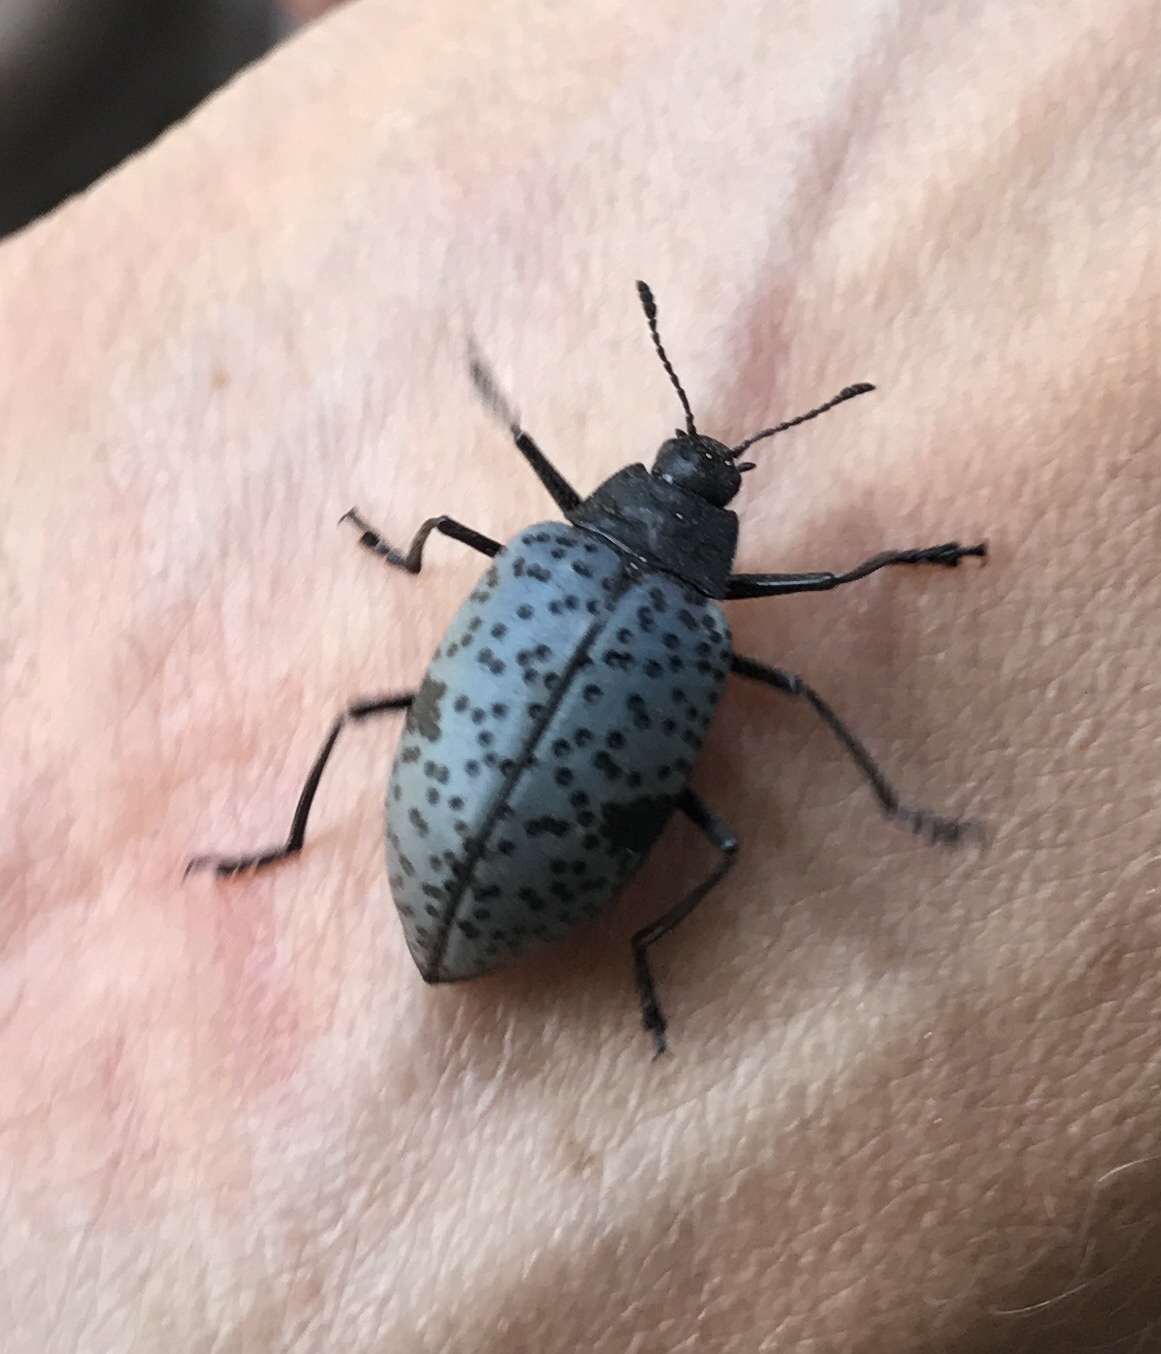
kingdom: Animalia
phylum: Arthropoda
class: Insecta
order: Coleoptera
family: Erotylidae
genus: Gibbifer
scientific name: Gibbifer californicus
